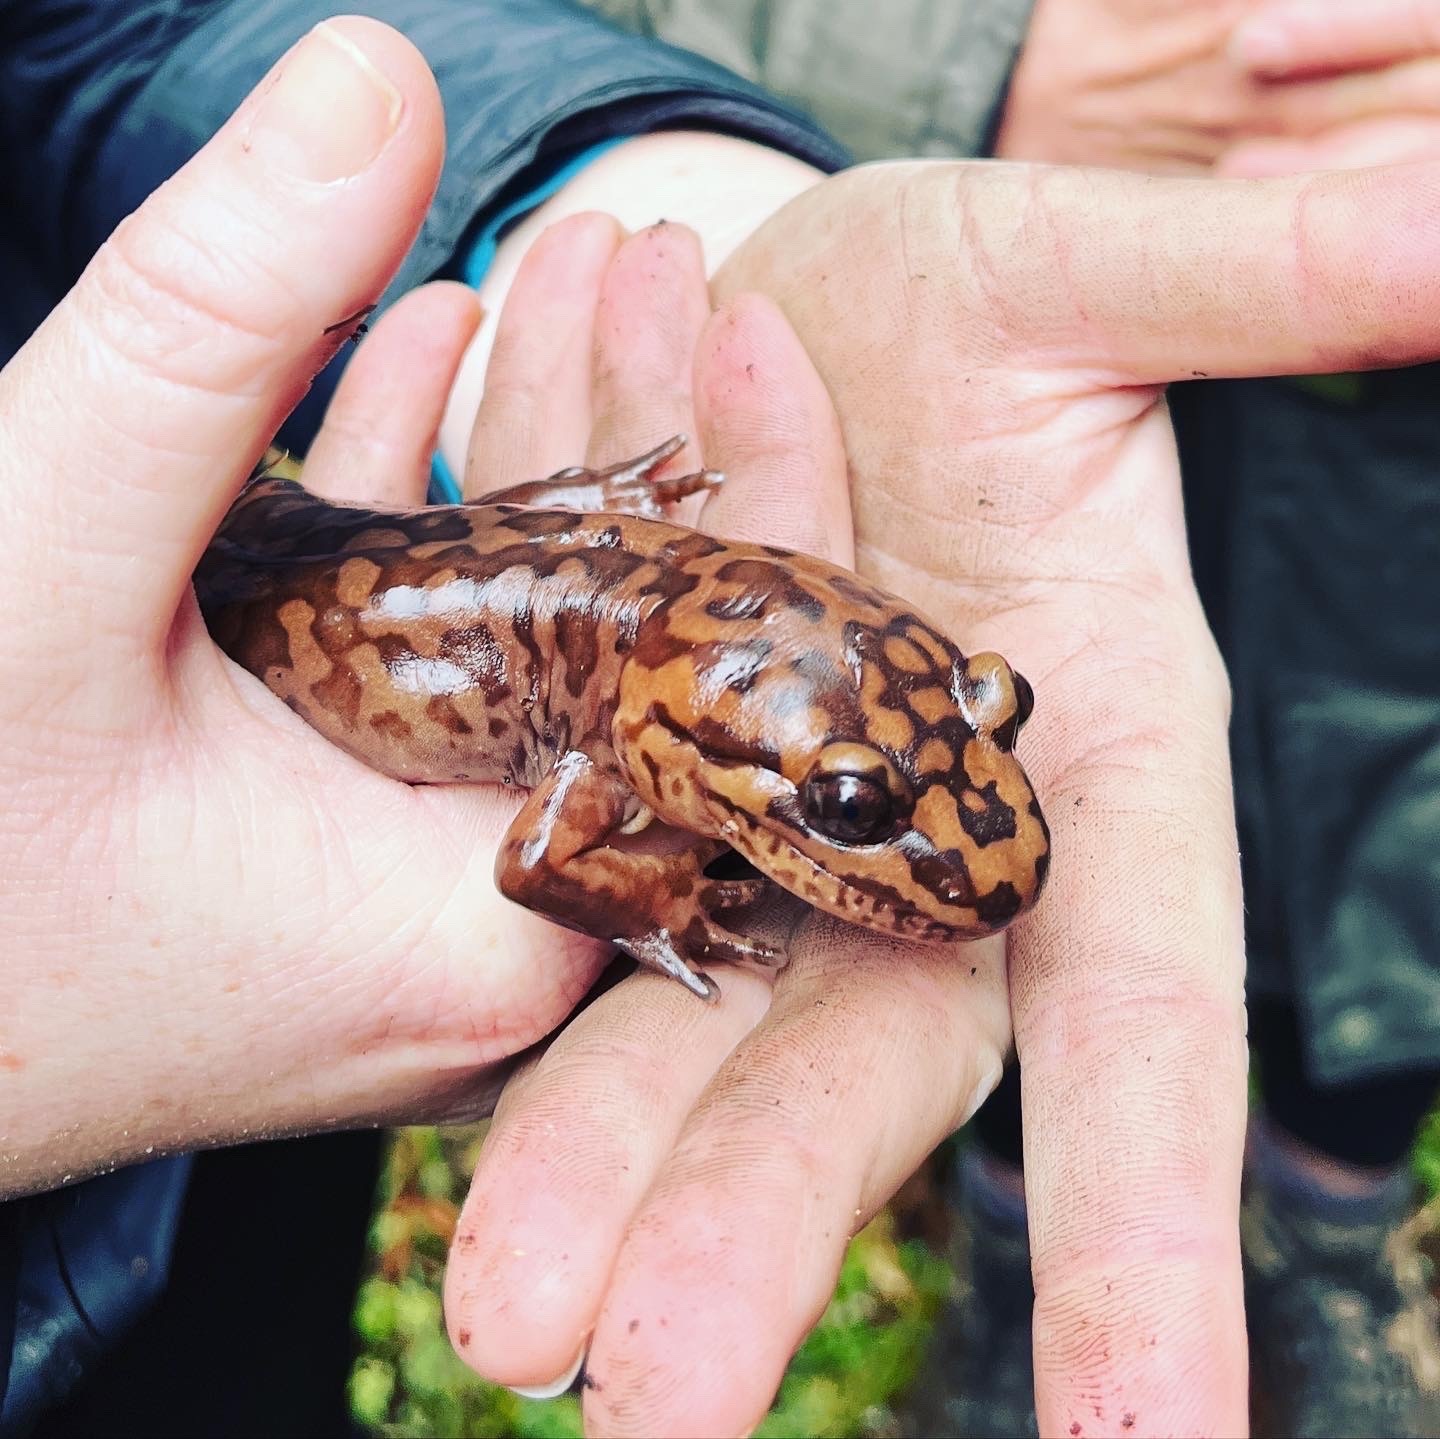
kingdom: Animalia
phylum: Chordata
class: Amphibia
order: Caudata
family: Ambystomatidae
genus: Dicamptodon
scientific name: Dicamptodon ensatus
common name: California giant salamander
